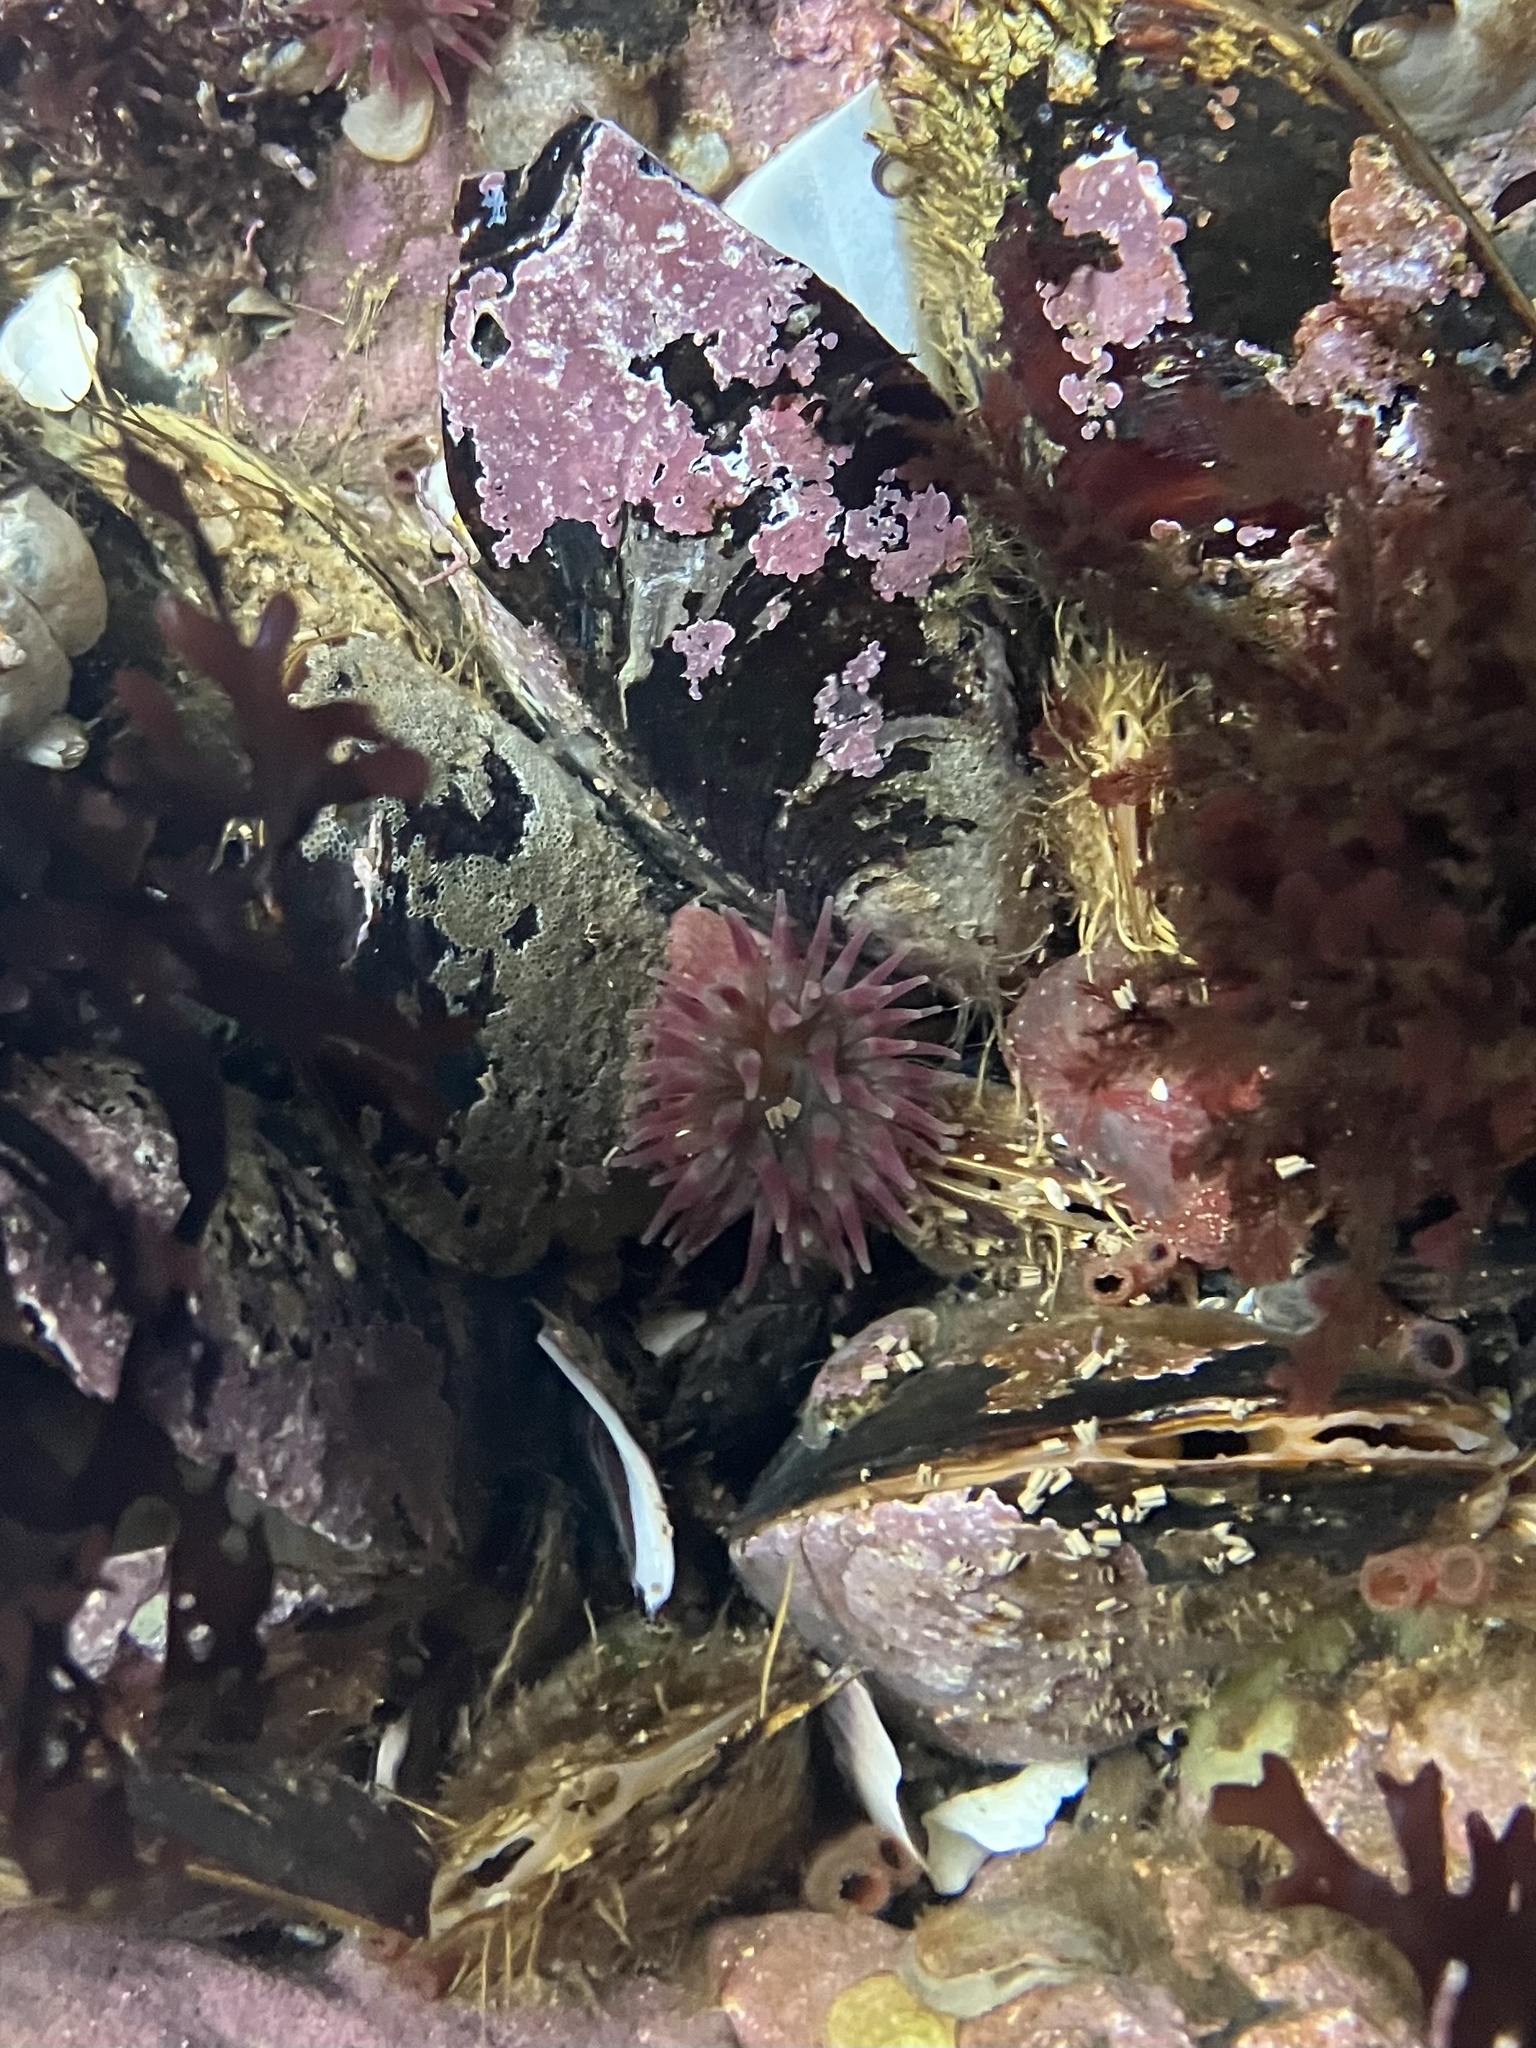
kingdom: Animalia
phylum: Cnidaria
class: Anthozoa
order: Actiniaria
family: Actiniidae
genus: Urticina
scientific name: Urticina crassicornis
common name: Mottled anemone
